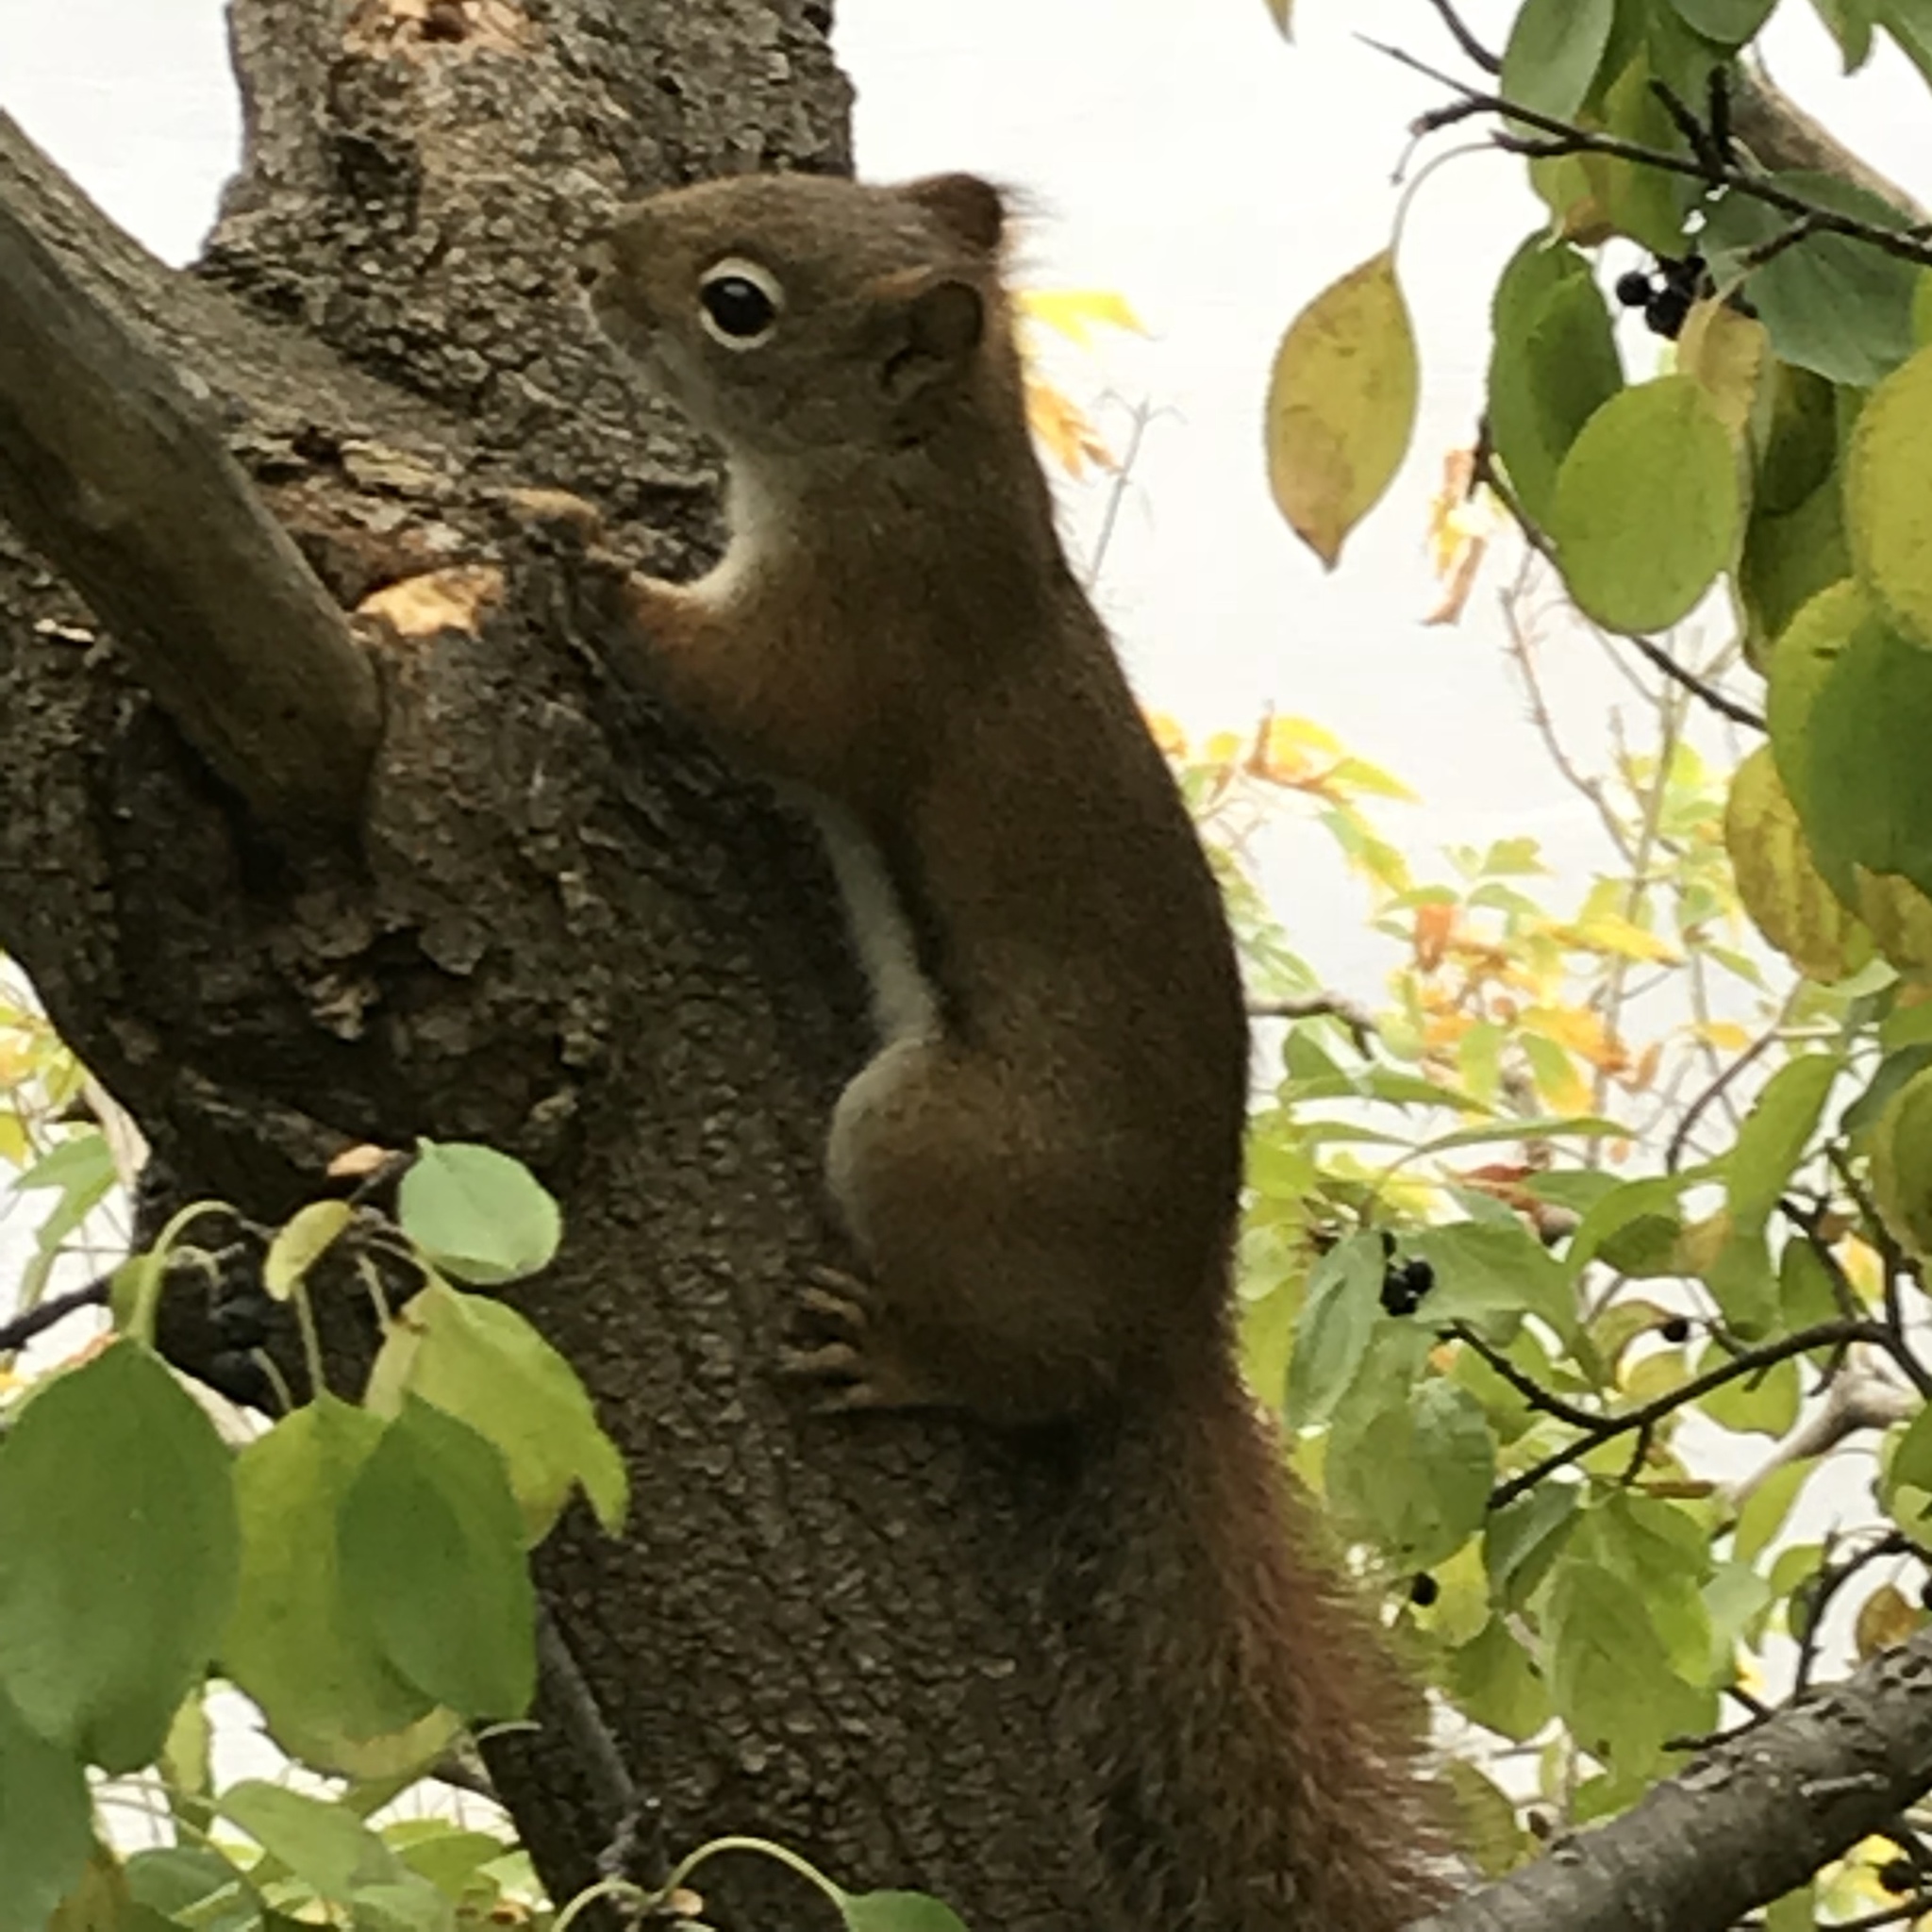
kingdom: Animalia
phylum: Chordata
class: Mammalia
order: Rodentia
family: Sciuridae
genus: Tamiasciurus
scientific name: Tamiasciurus hudsonicus
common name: Red squirrel
